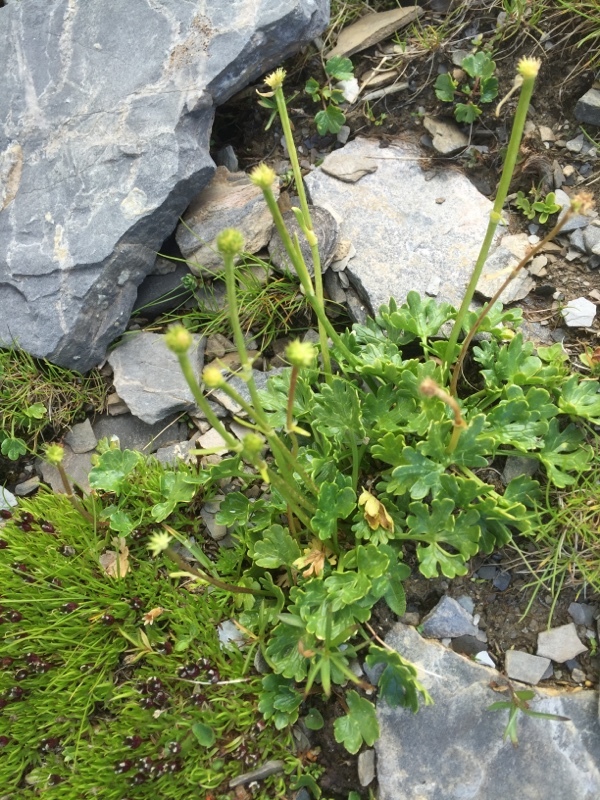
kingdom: Plantae
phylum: Tracheophyta
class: Magnoliopsida
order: Ranunculales
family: Ranunculaceae
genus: Ranunculus
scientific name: Ranunculus alpestris
